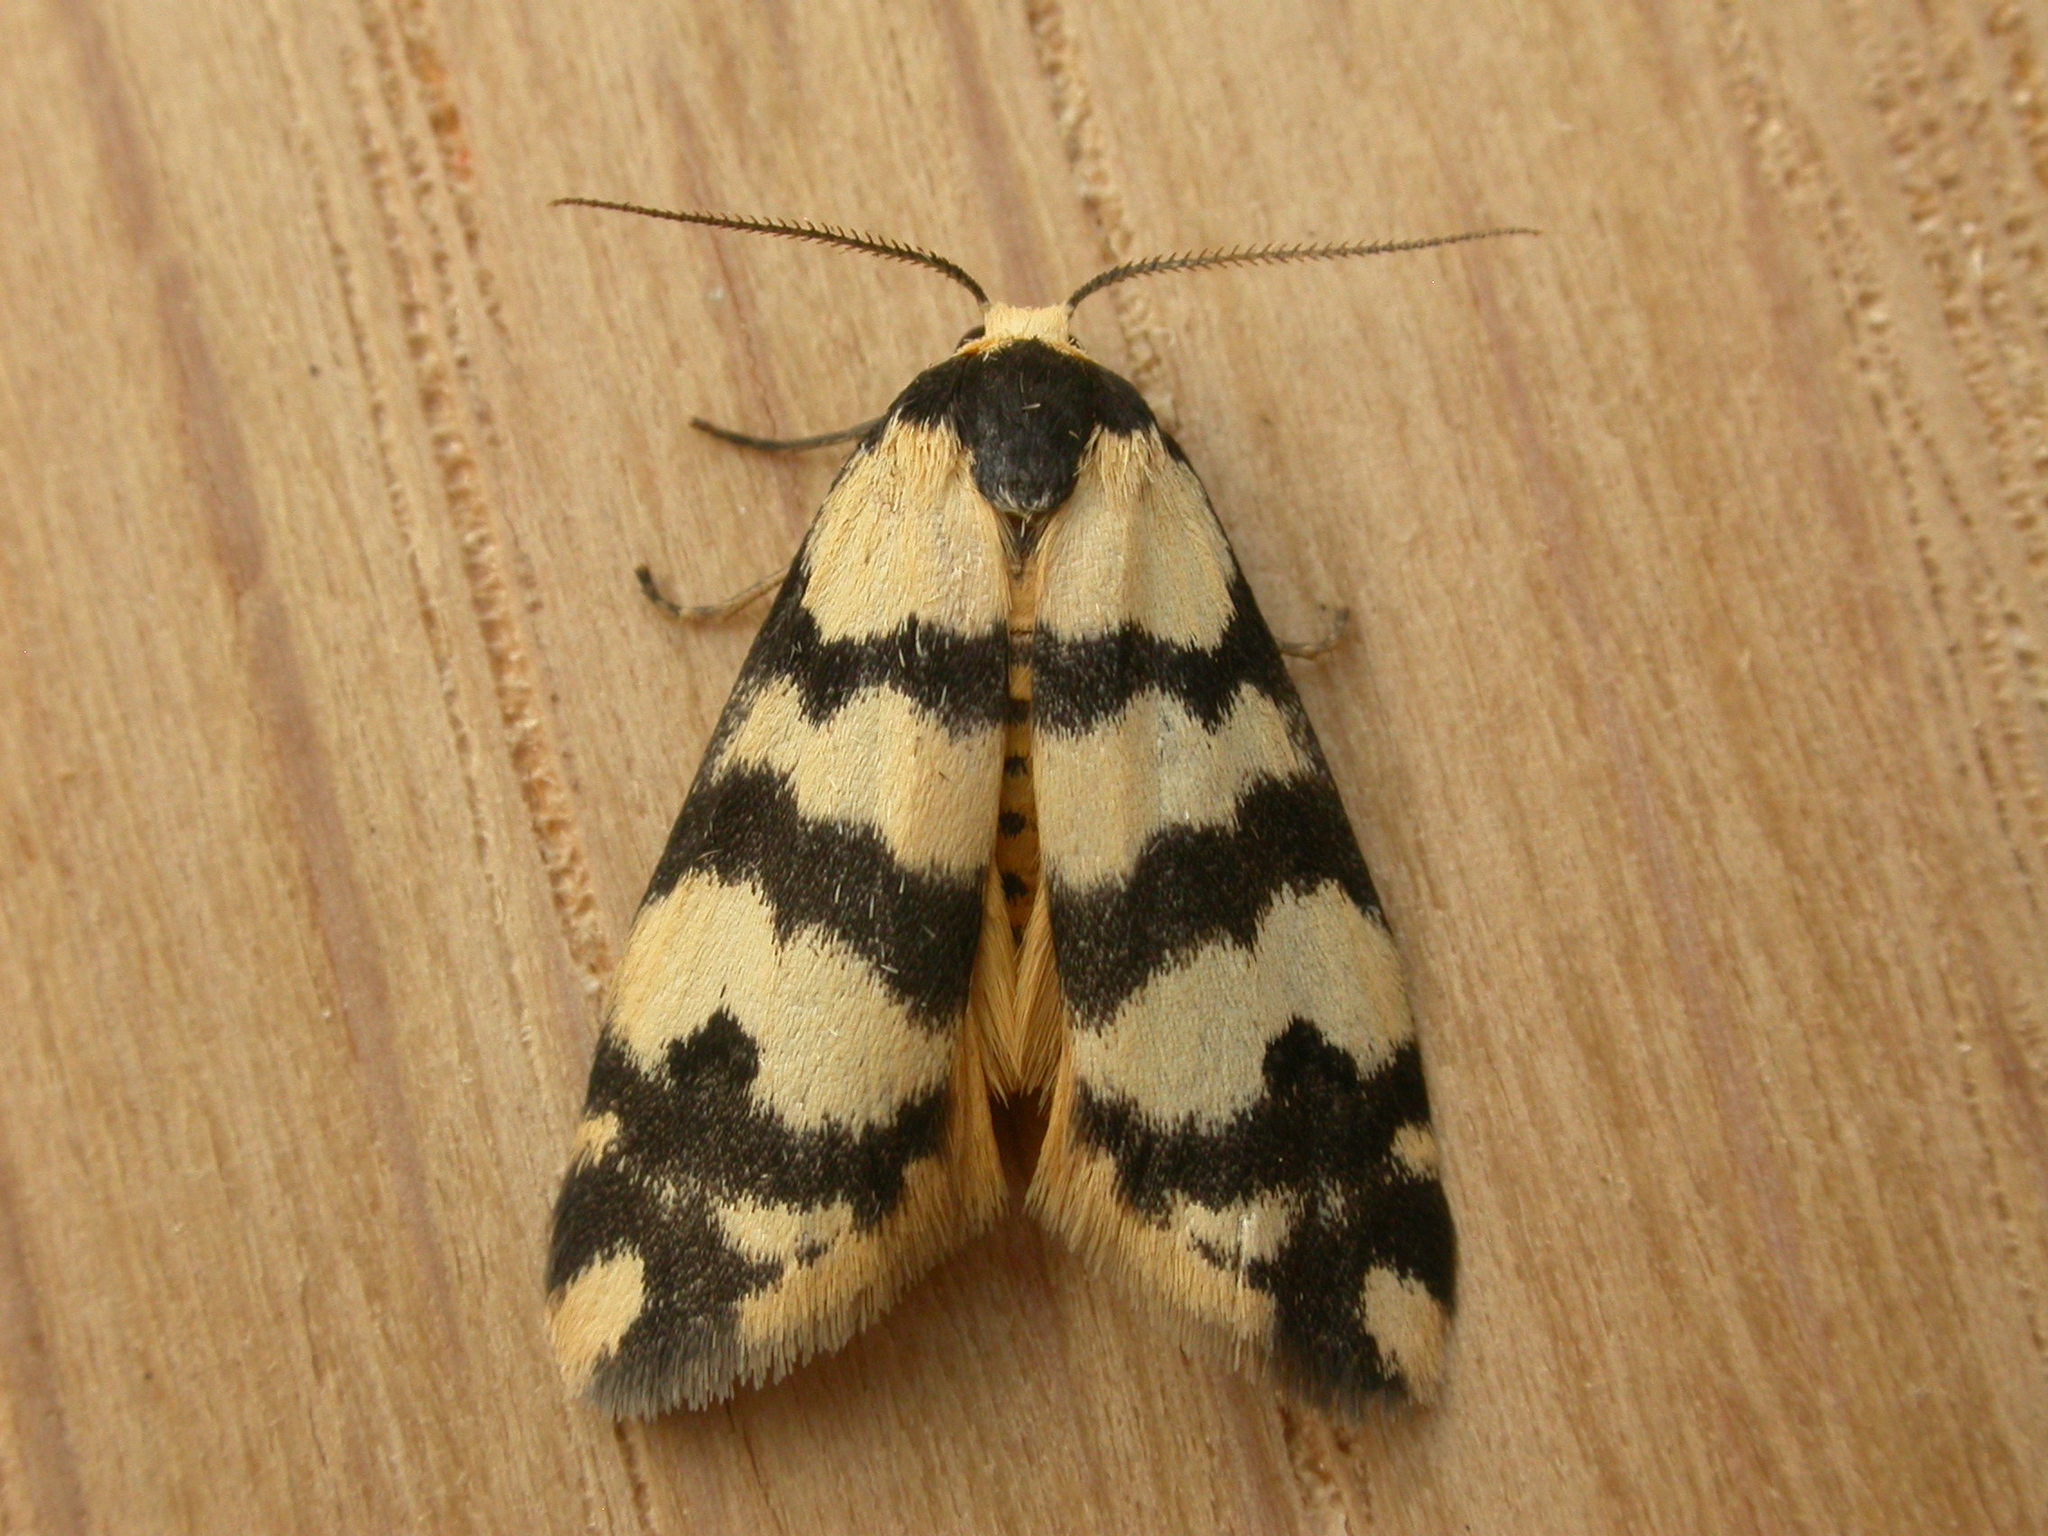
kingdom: Animalia
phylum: Arthropoda
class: Insecta
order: Lepidoptera
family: Erebidae
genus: Thallarcha
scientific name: Thallarcha trissomochla
